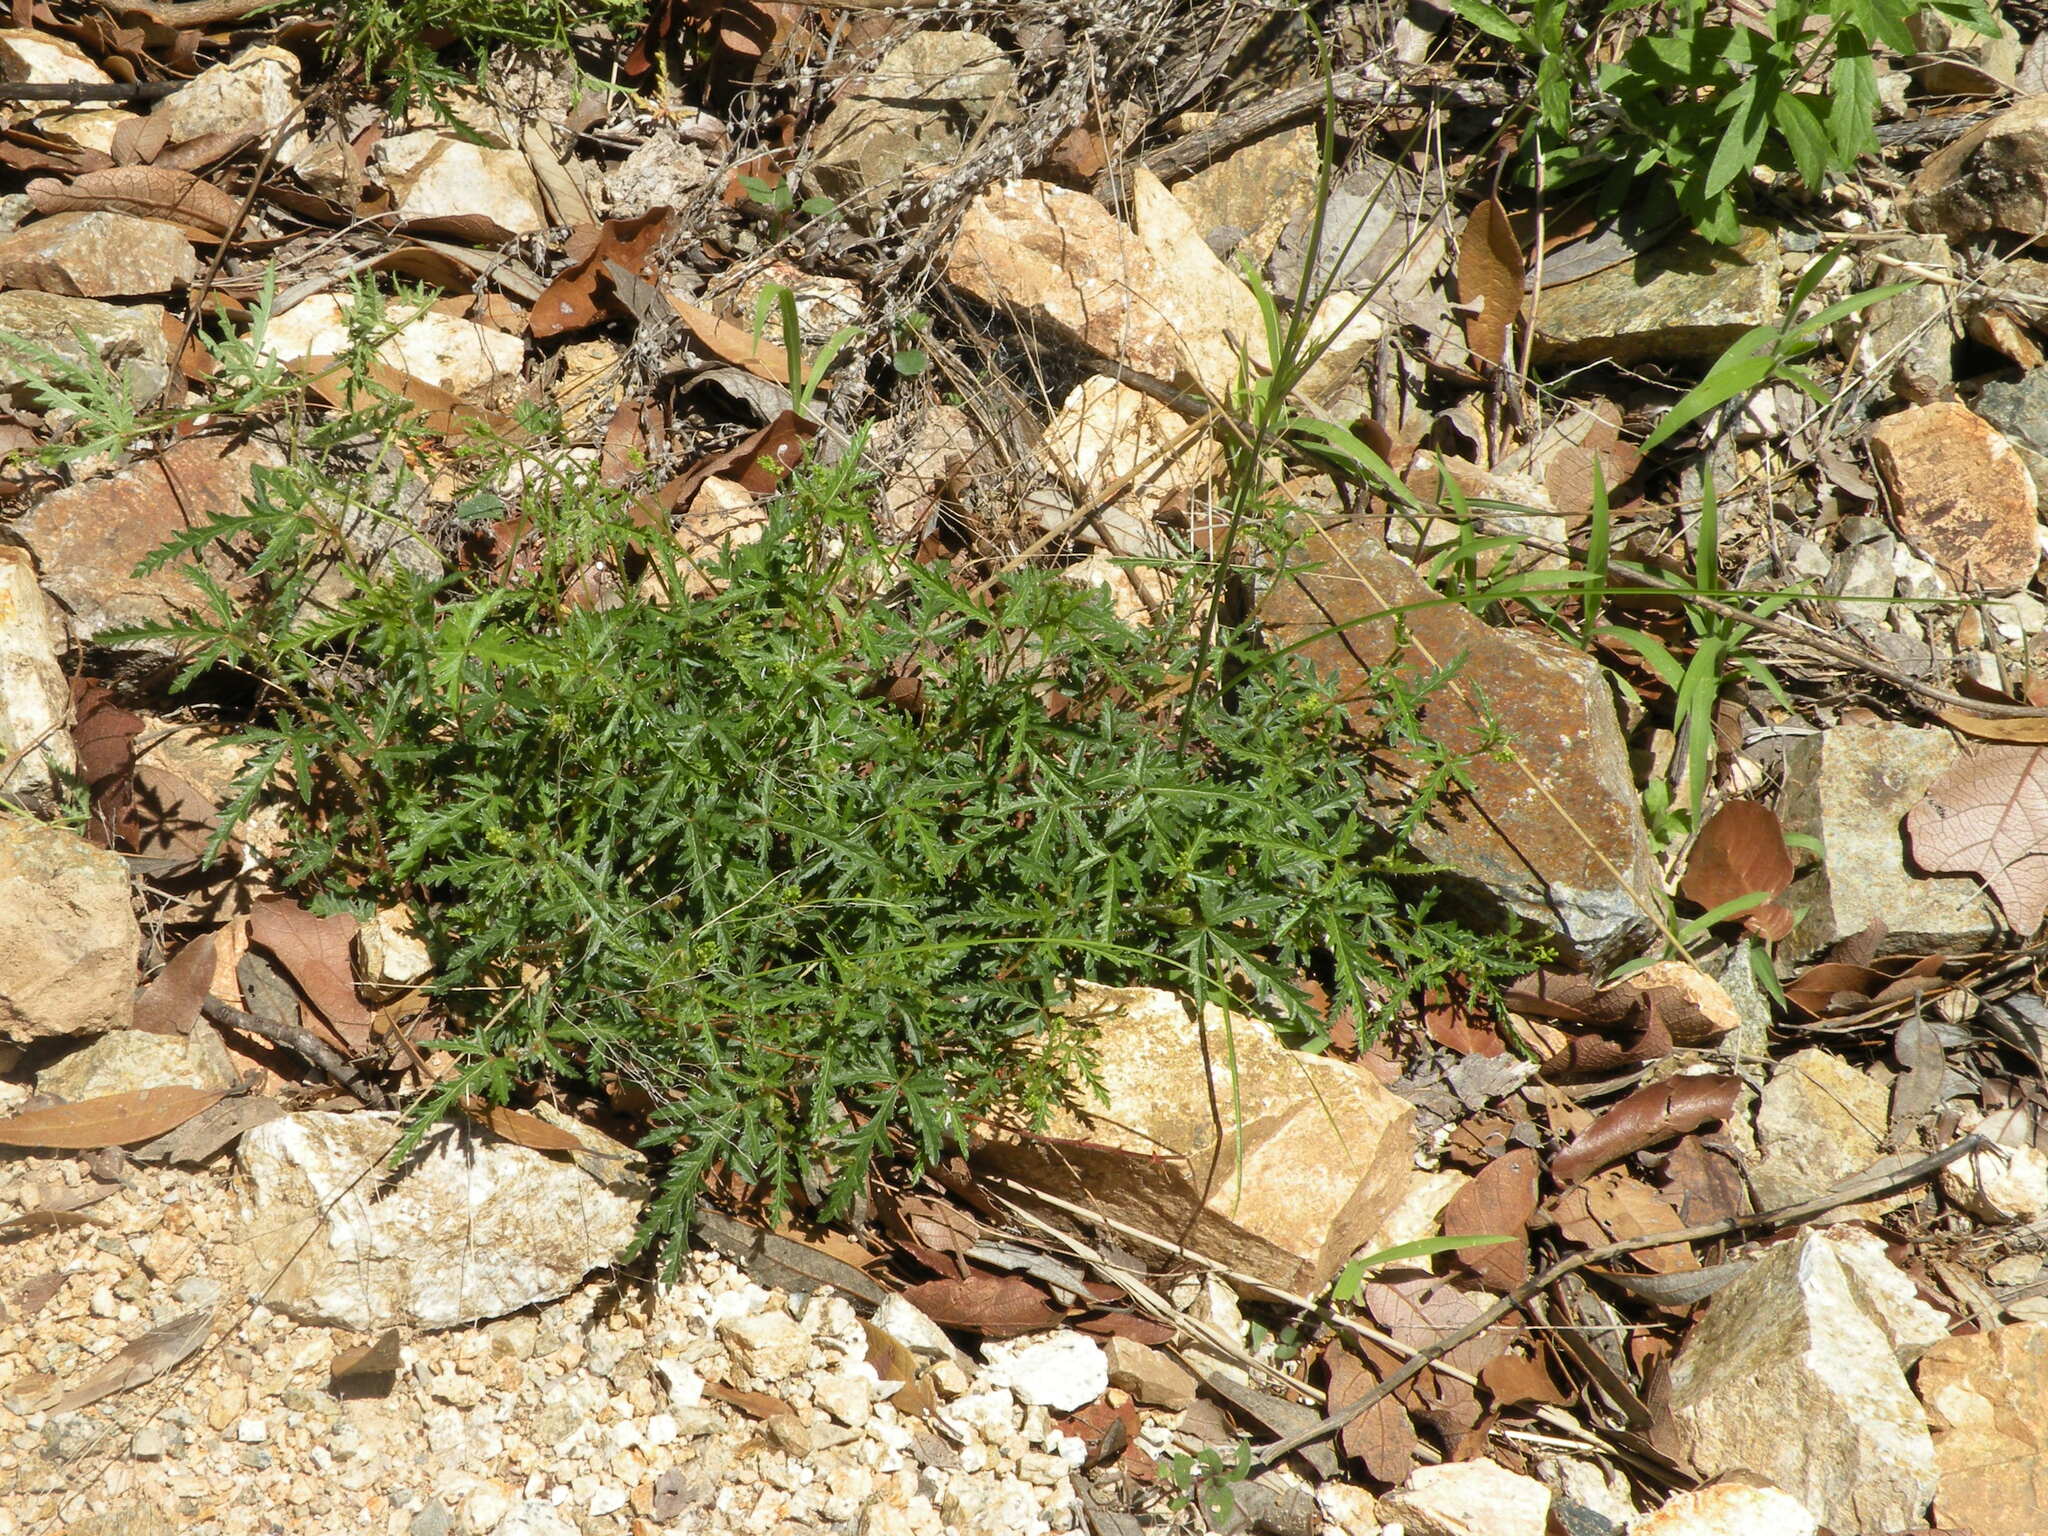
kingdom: Plantae
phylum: Tracheophyta
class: Magnoliopsida
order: Malpighiales
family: Euphorbiaceae
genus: Tragia
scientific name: Tragia laciniata
